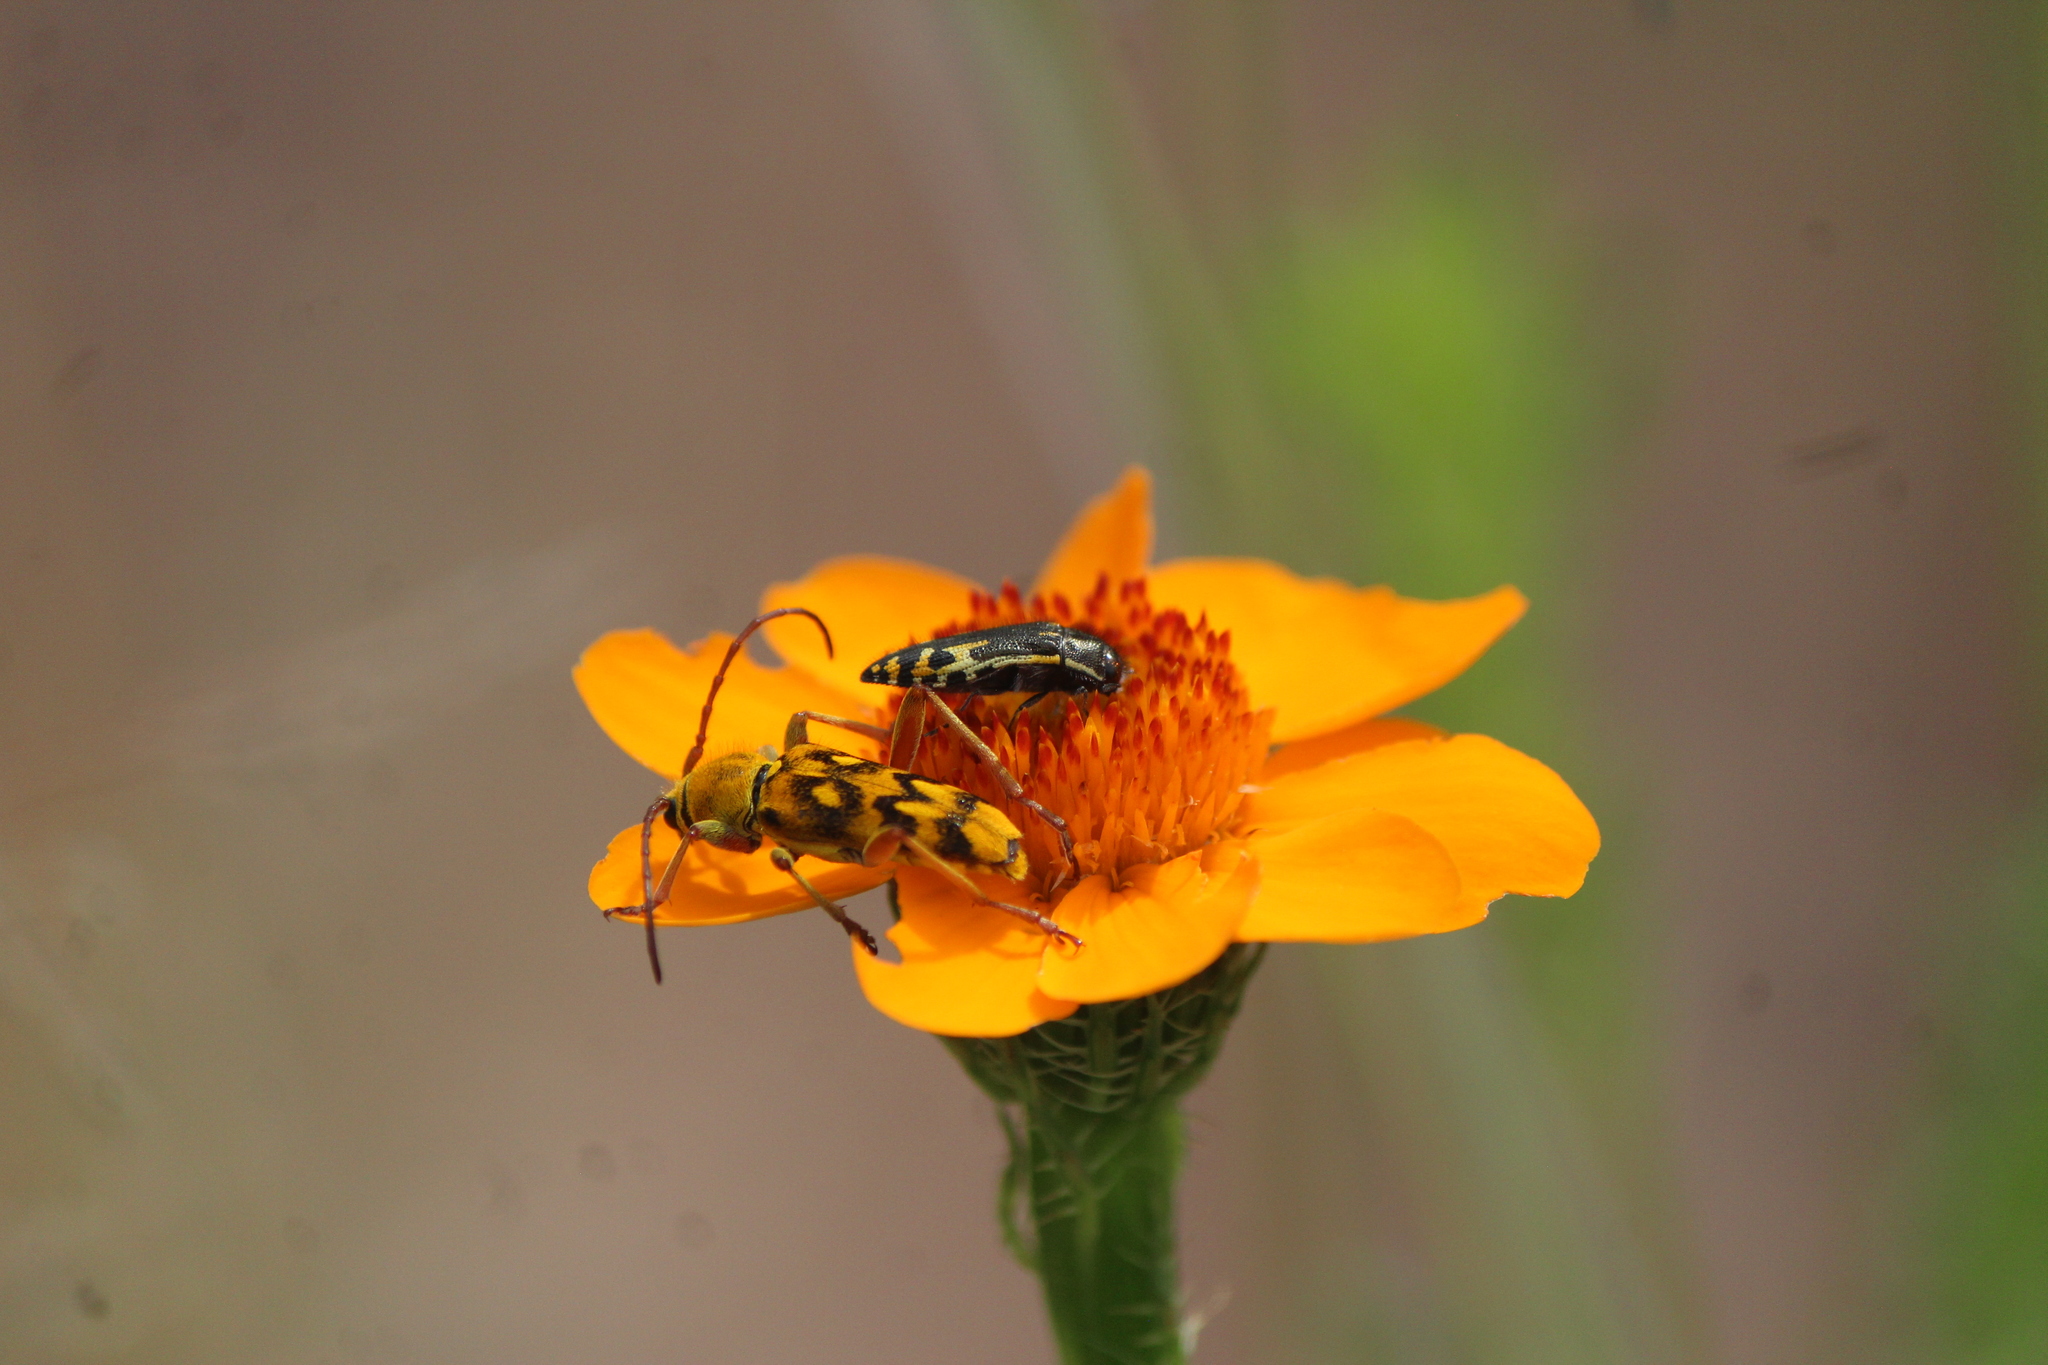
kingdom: Animalia
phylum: Arthropoda
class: Insecta
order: Coleoptera
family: Buprestidae
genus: Acmaeodera
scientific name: Acmaeodera scalaris
